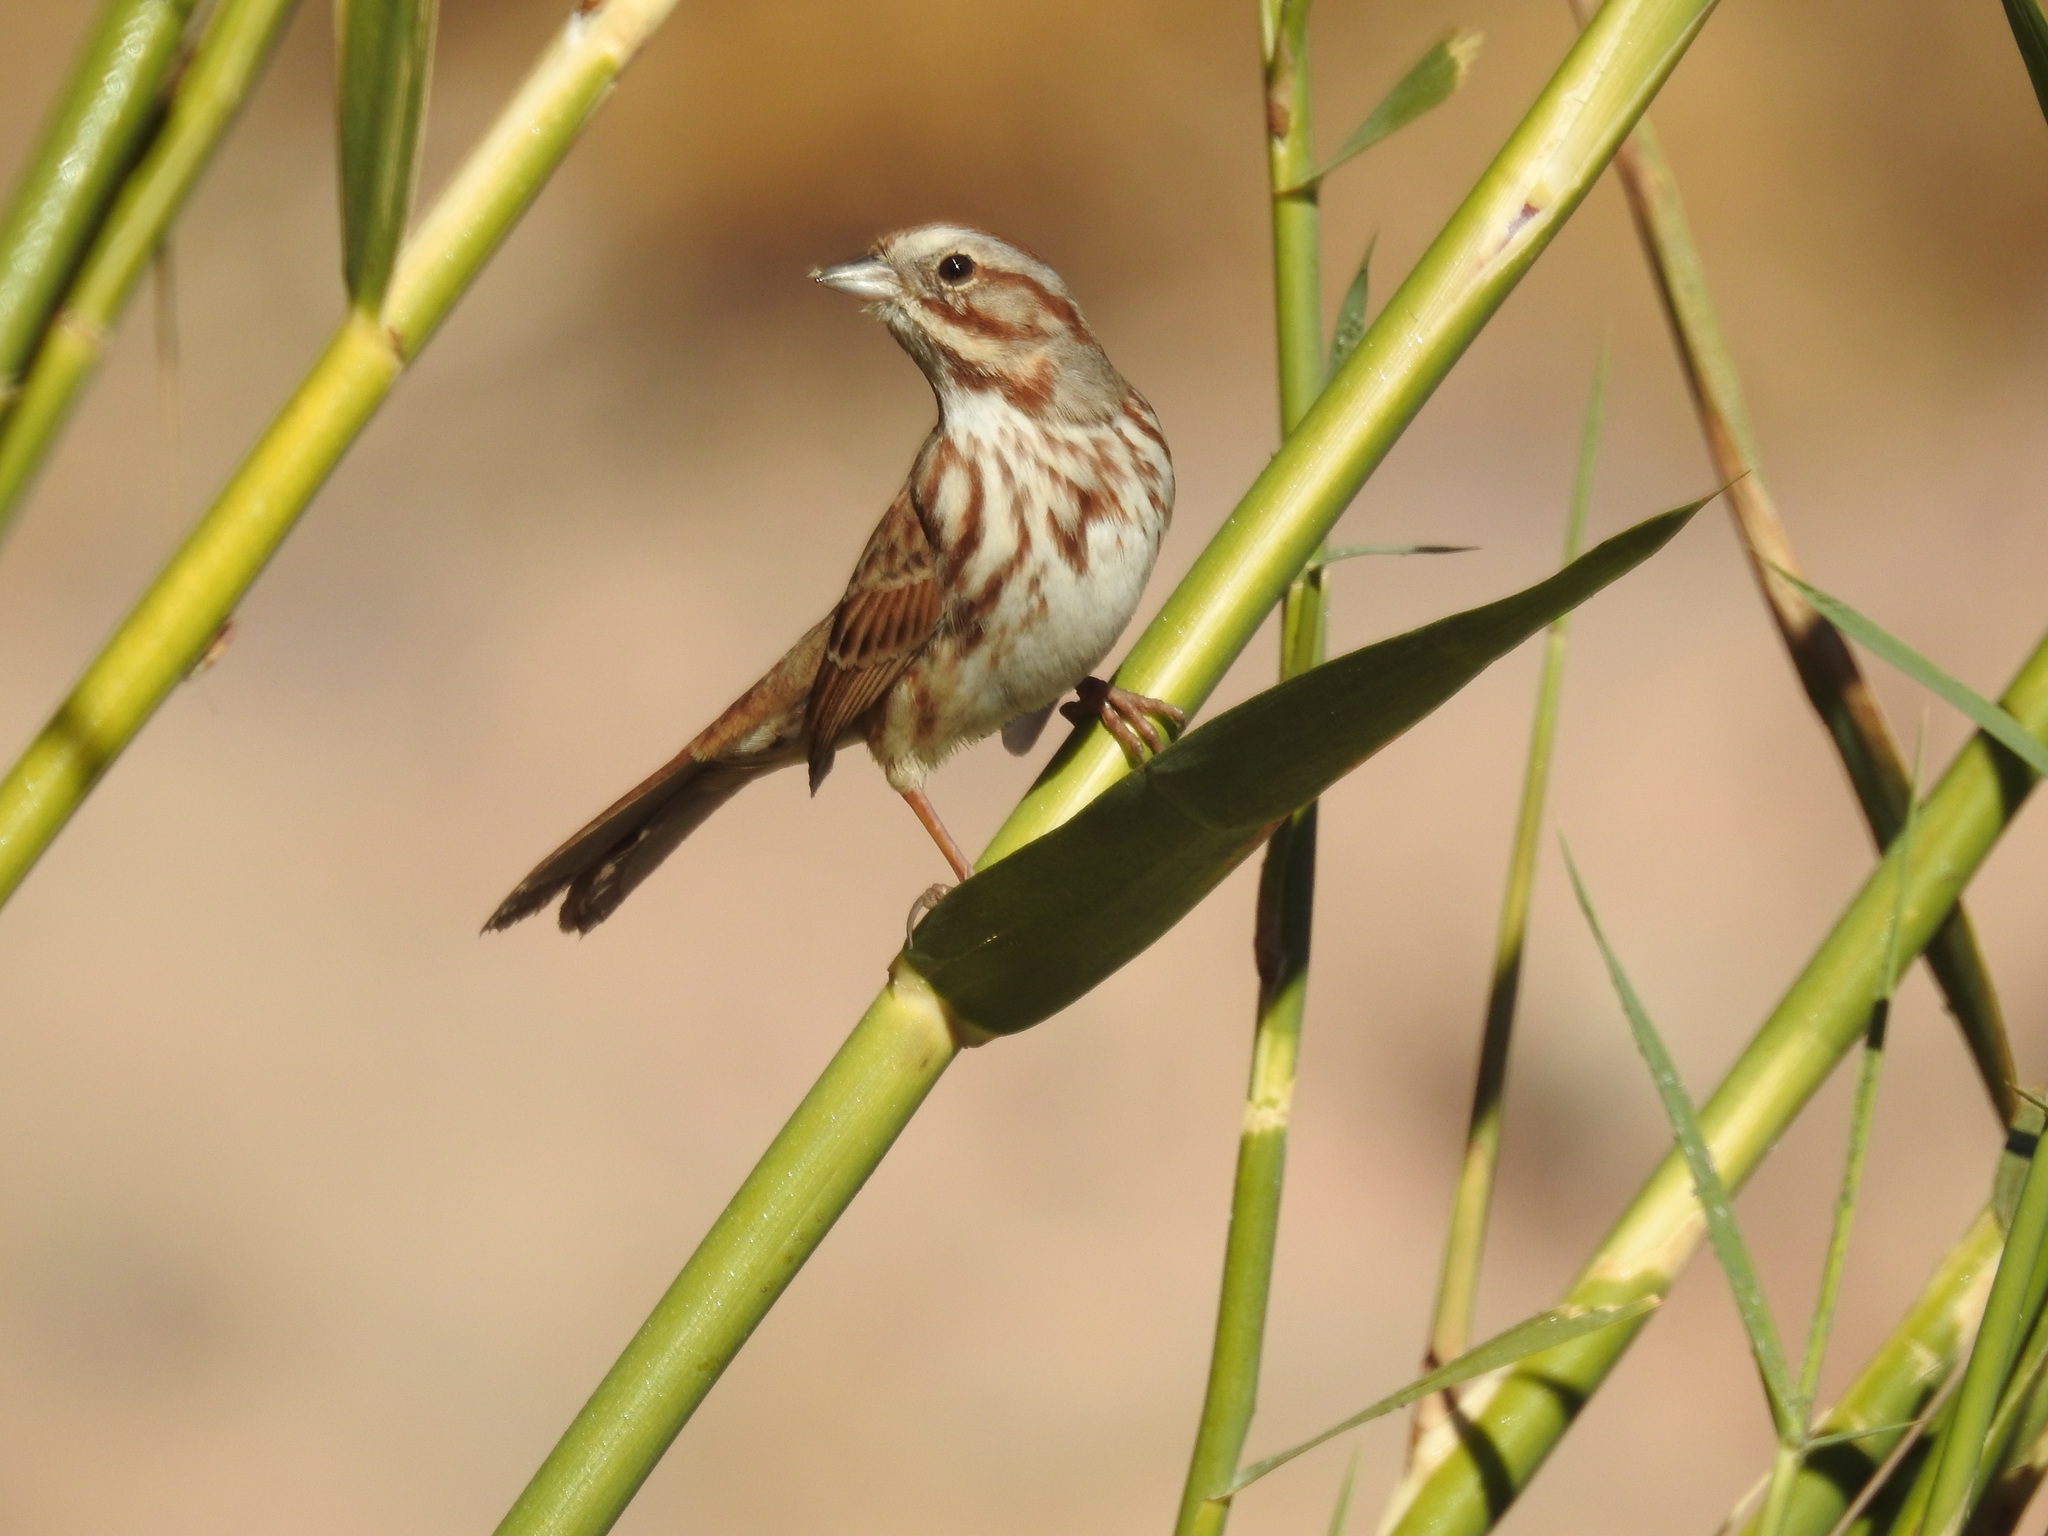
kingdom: Animalia
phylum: Chordata
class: Aves
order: Passeriformes
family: Passerellidae
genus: Melospiza
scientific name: Melospiza melodia
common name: Song sparrow
